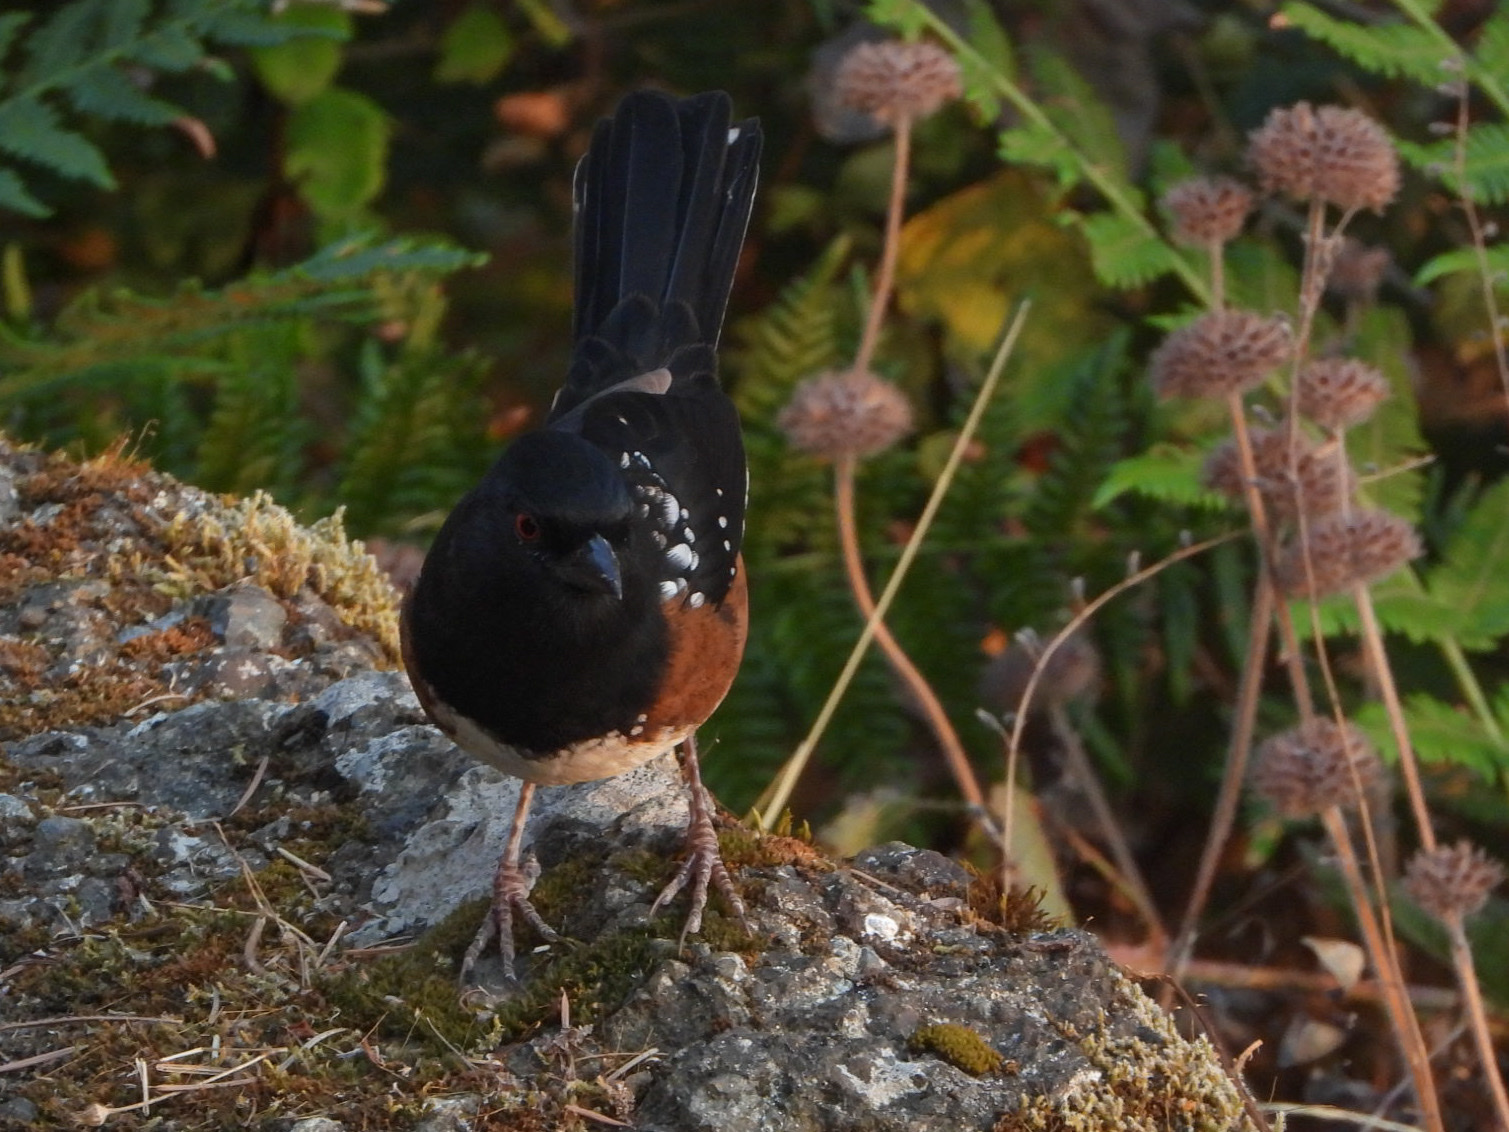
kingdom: Animalia
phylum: Chordata
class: Aves
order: Passeriformes
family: Passerellidae
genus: Pipilo
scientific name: Pipilo maculatus
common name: Spotted towhee
